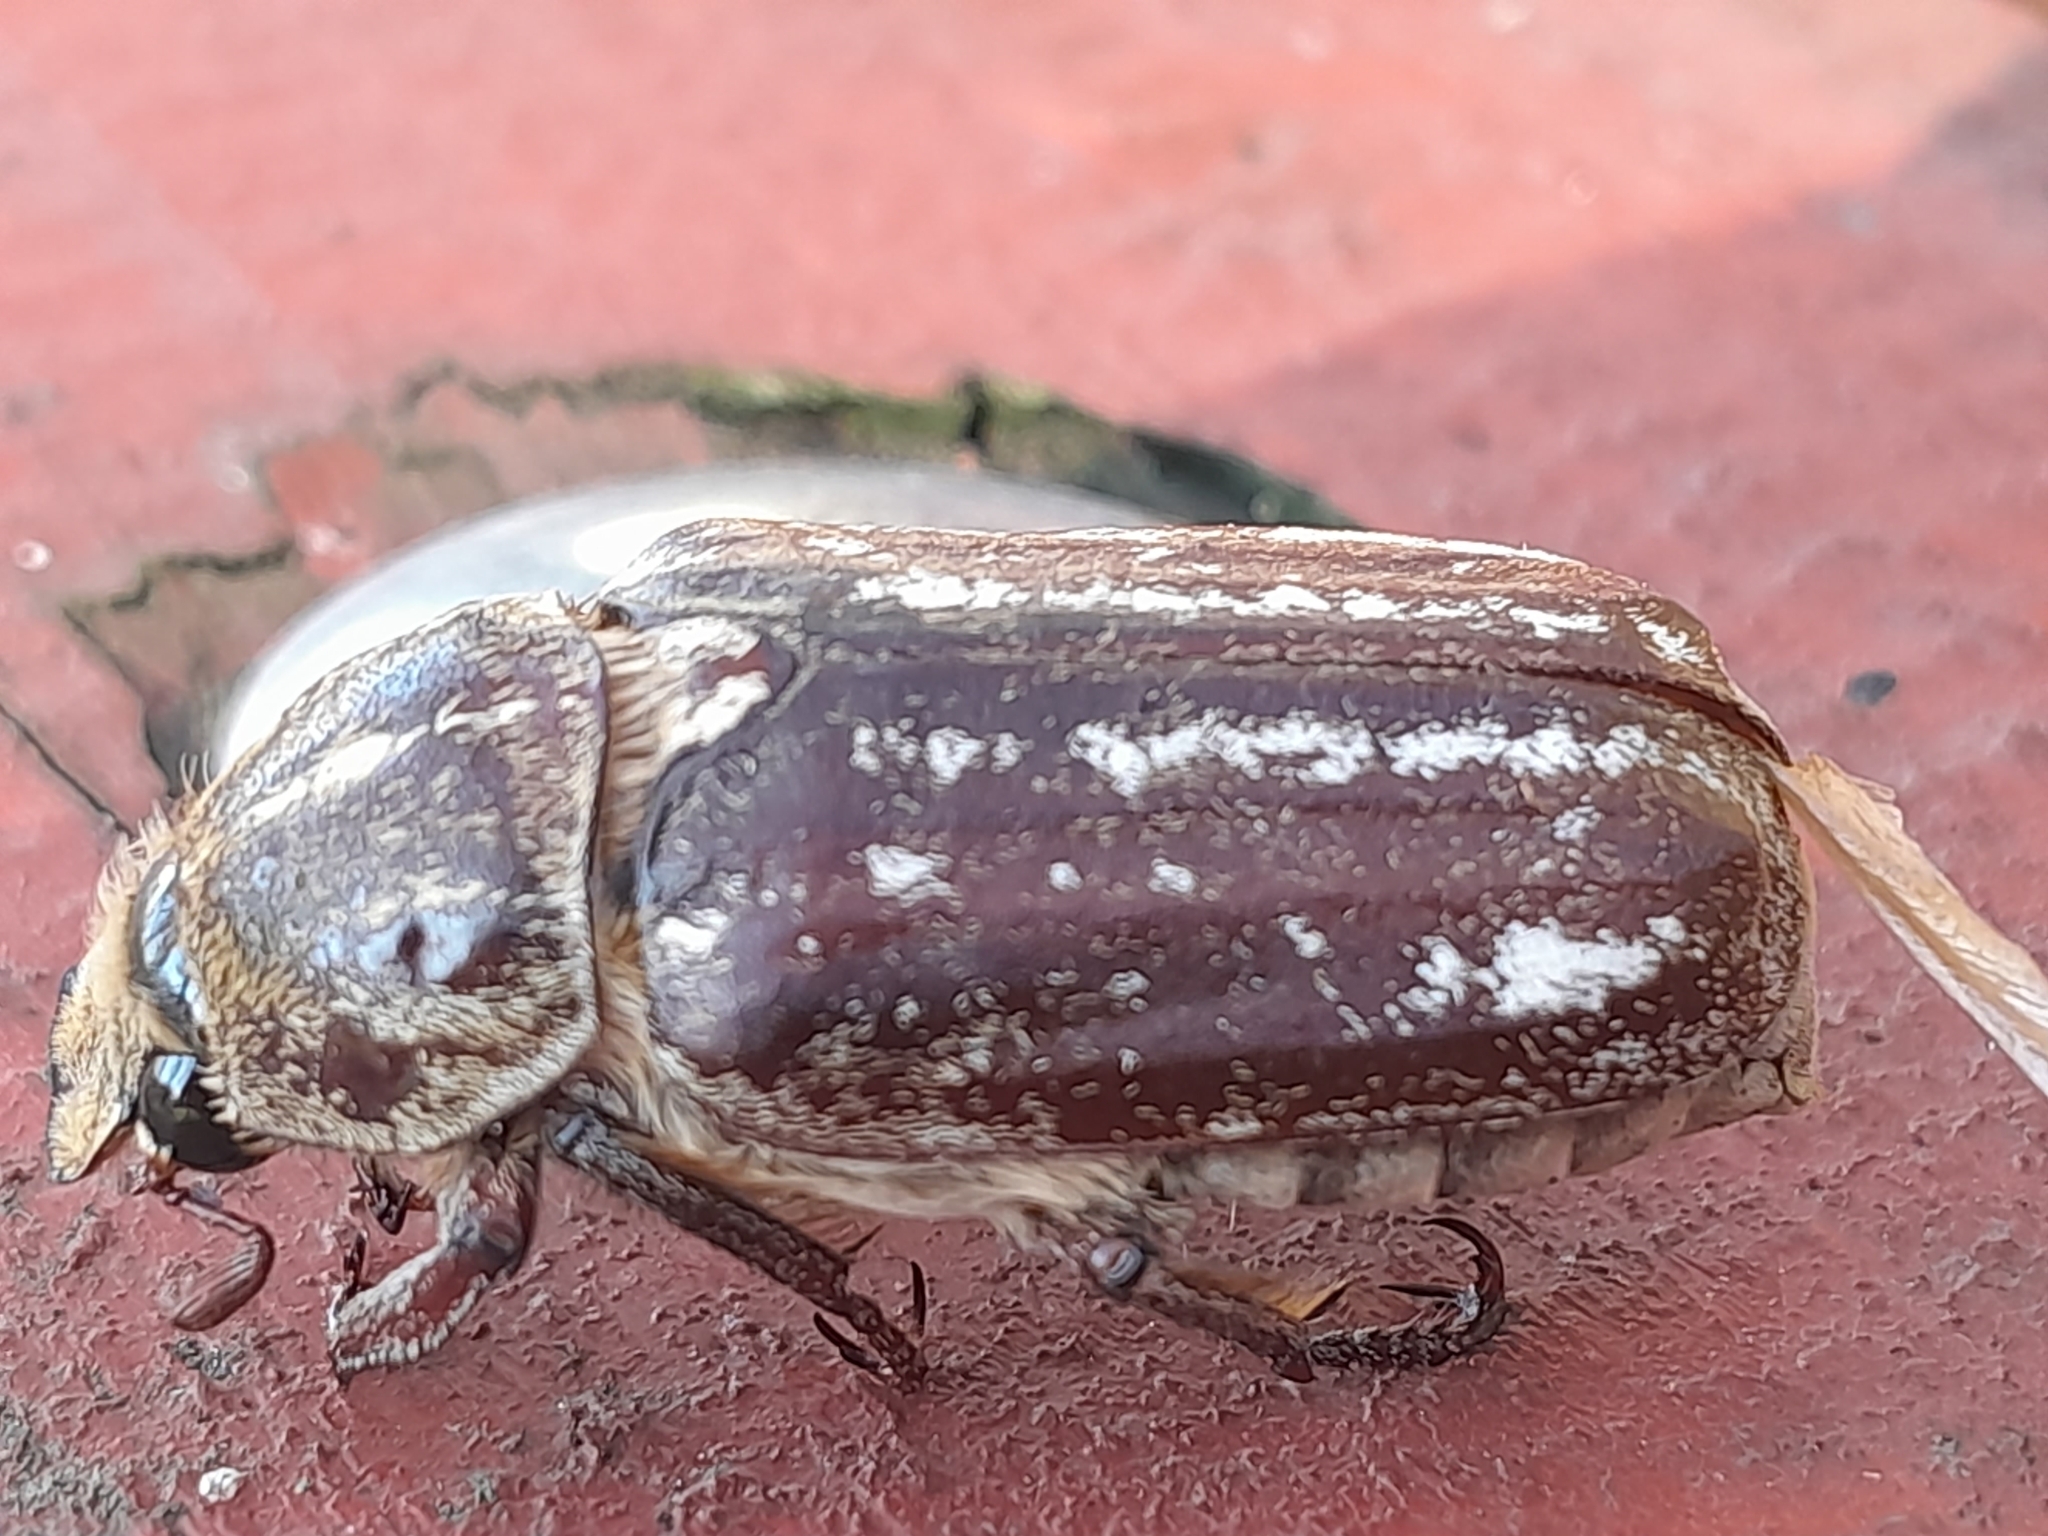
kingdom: Animalia
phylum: Arthropoda
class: Insecta
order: Coleoptera
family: Scarabaeidae
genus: Anoxia
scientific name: Anoxia orientalis
